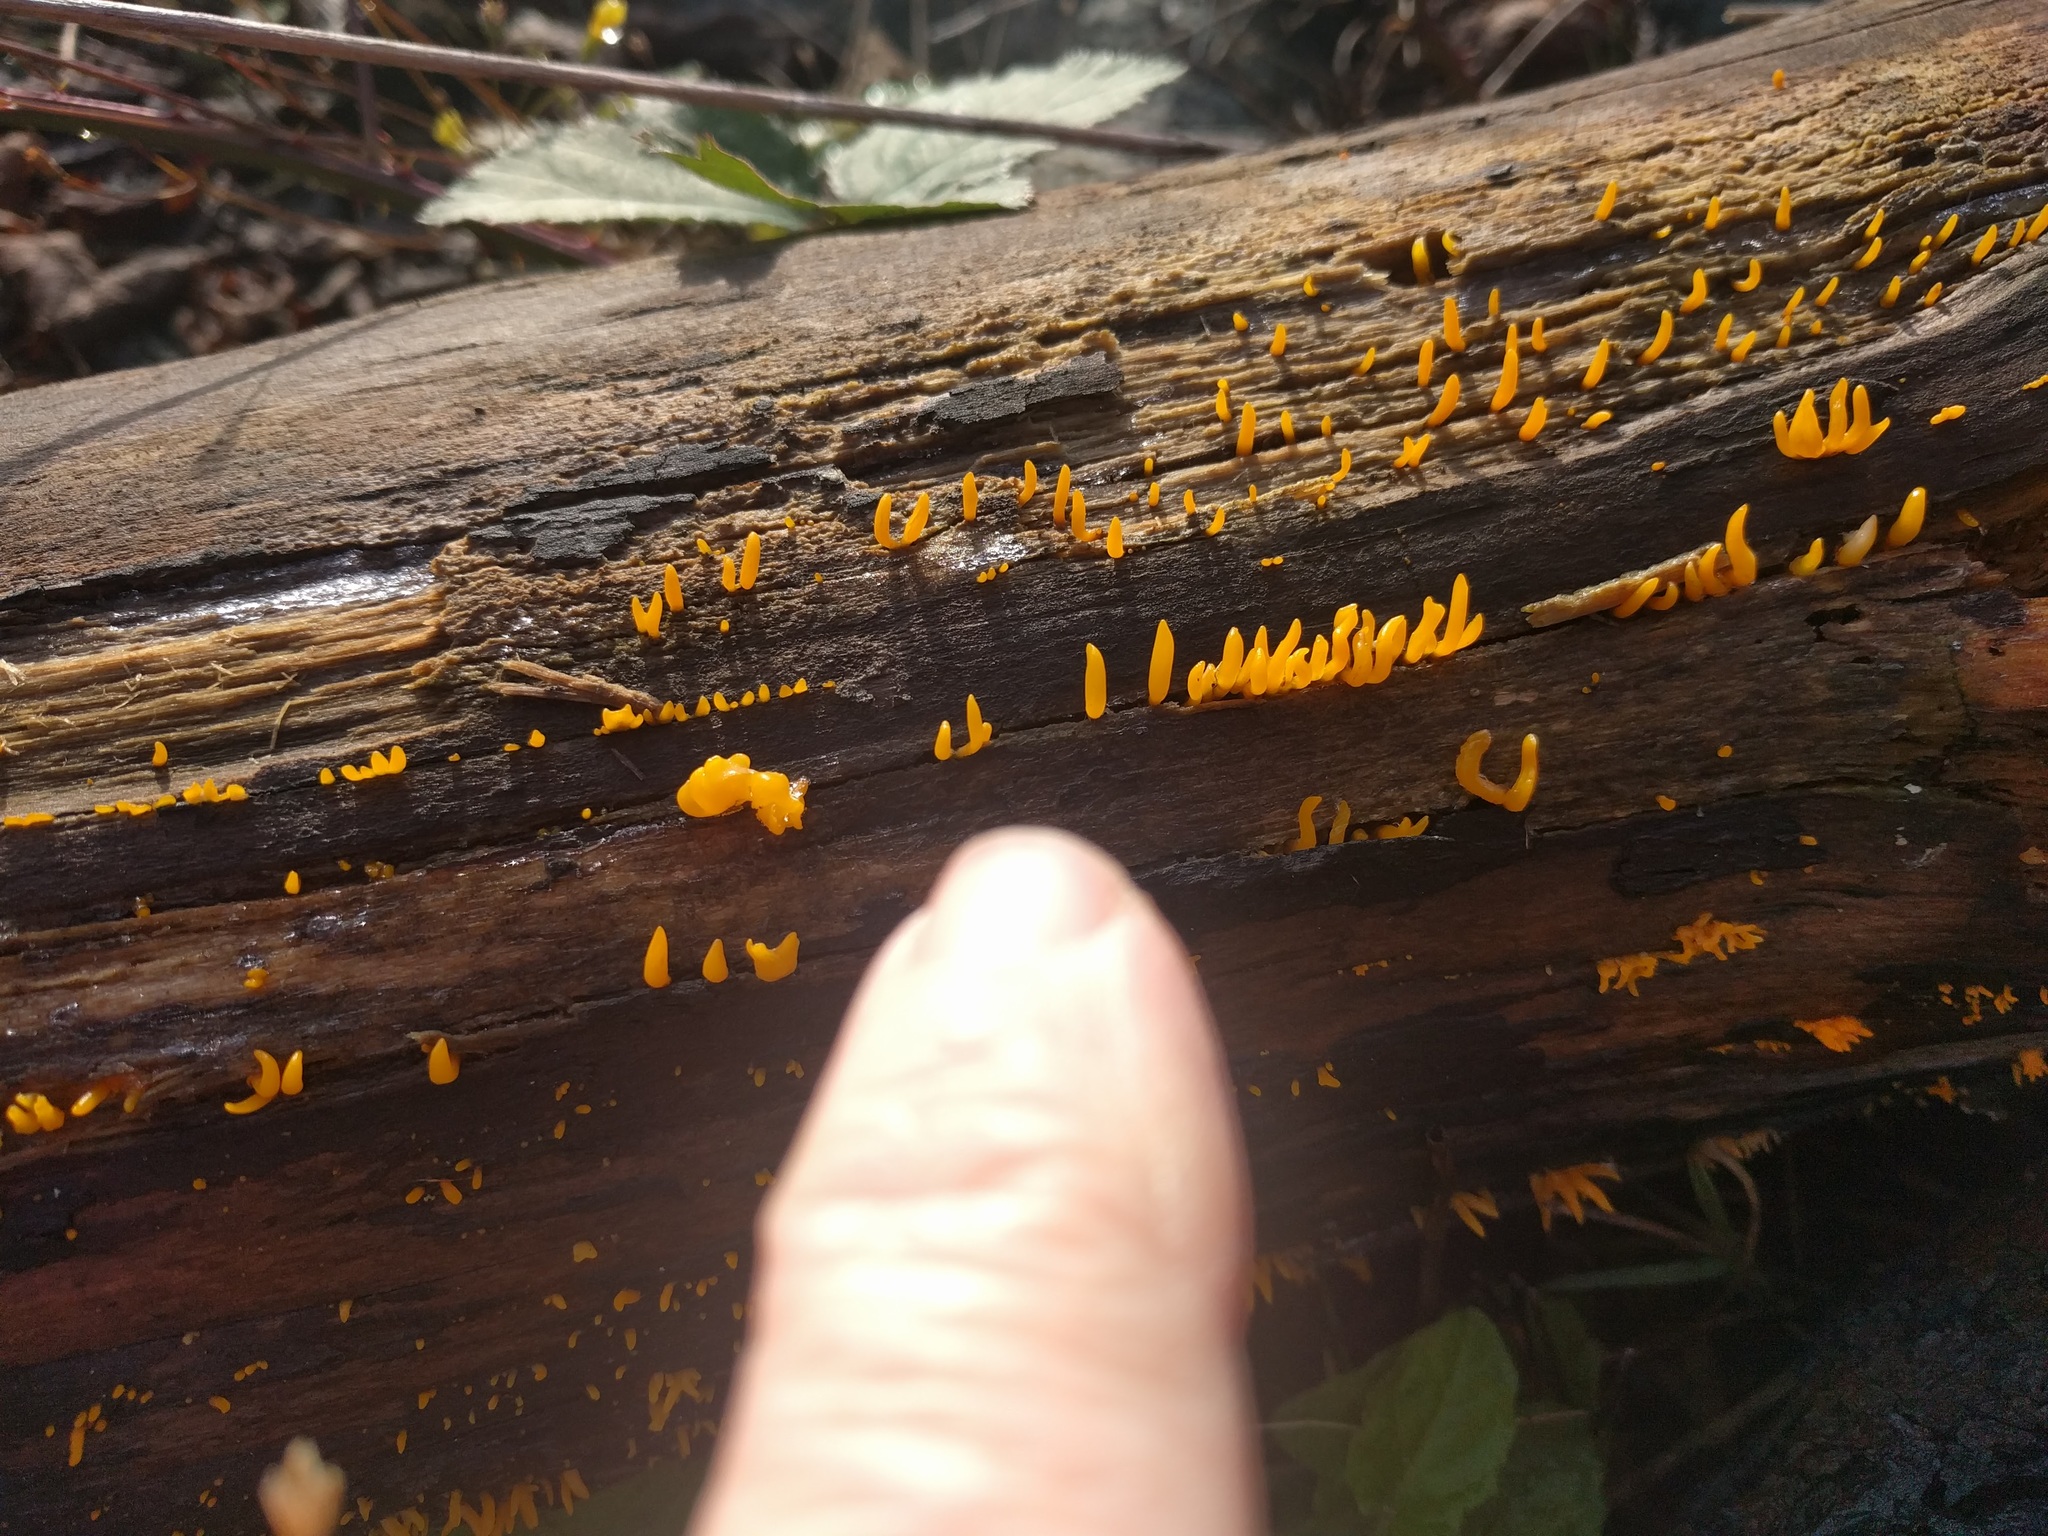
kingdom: Fungi
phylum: Basidiomycota
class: Dacrymycetes
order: Dacrymycetales
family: Dacrymycetaceae
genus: Calocera
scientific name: Calocera cornea
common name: Small stagshorn
